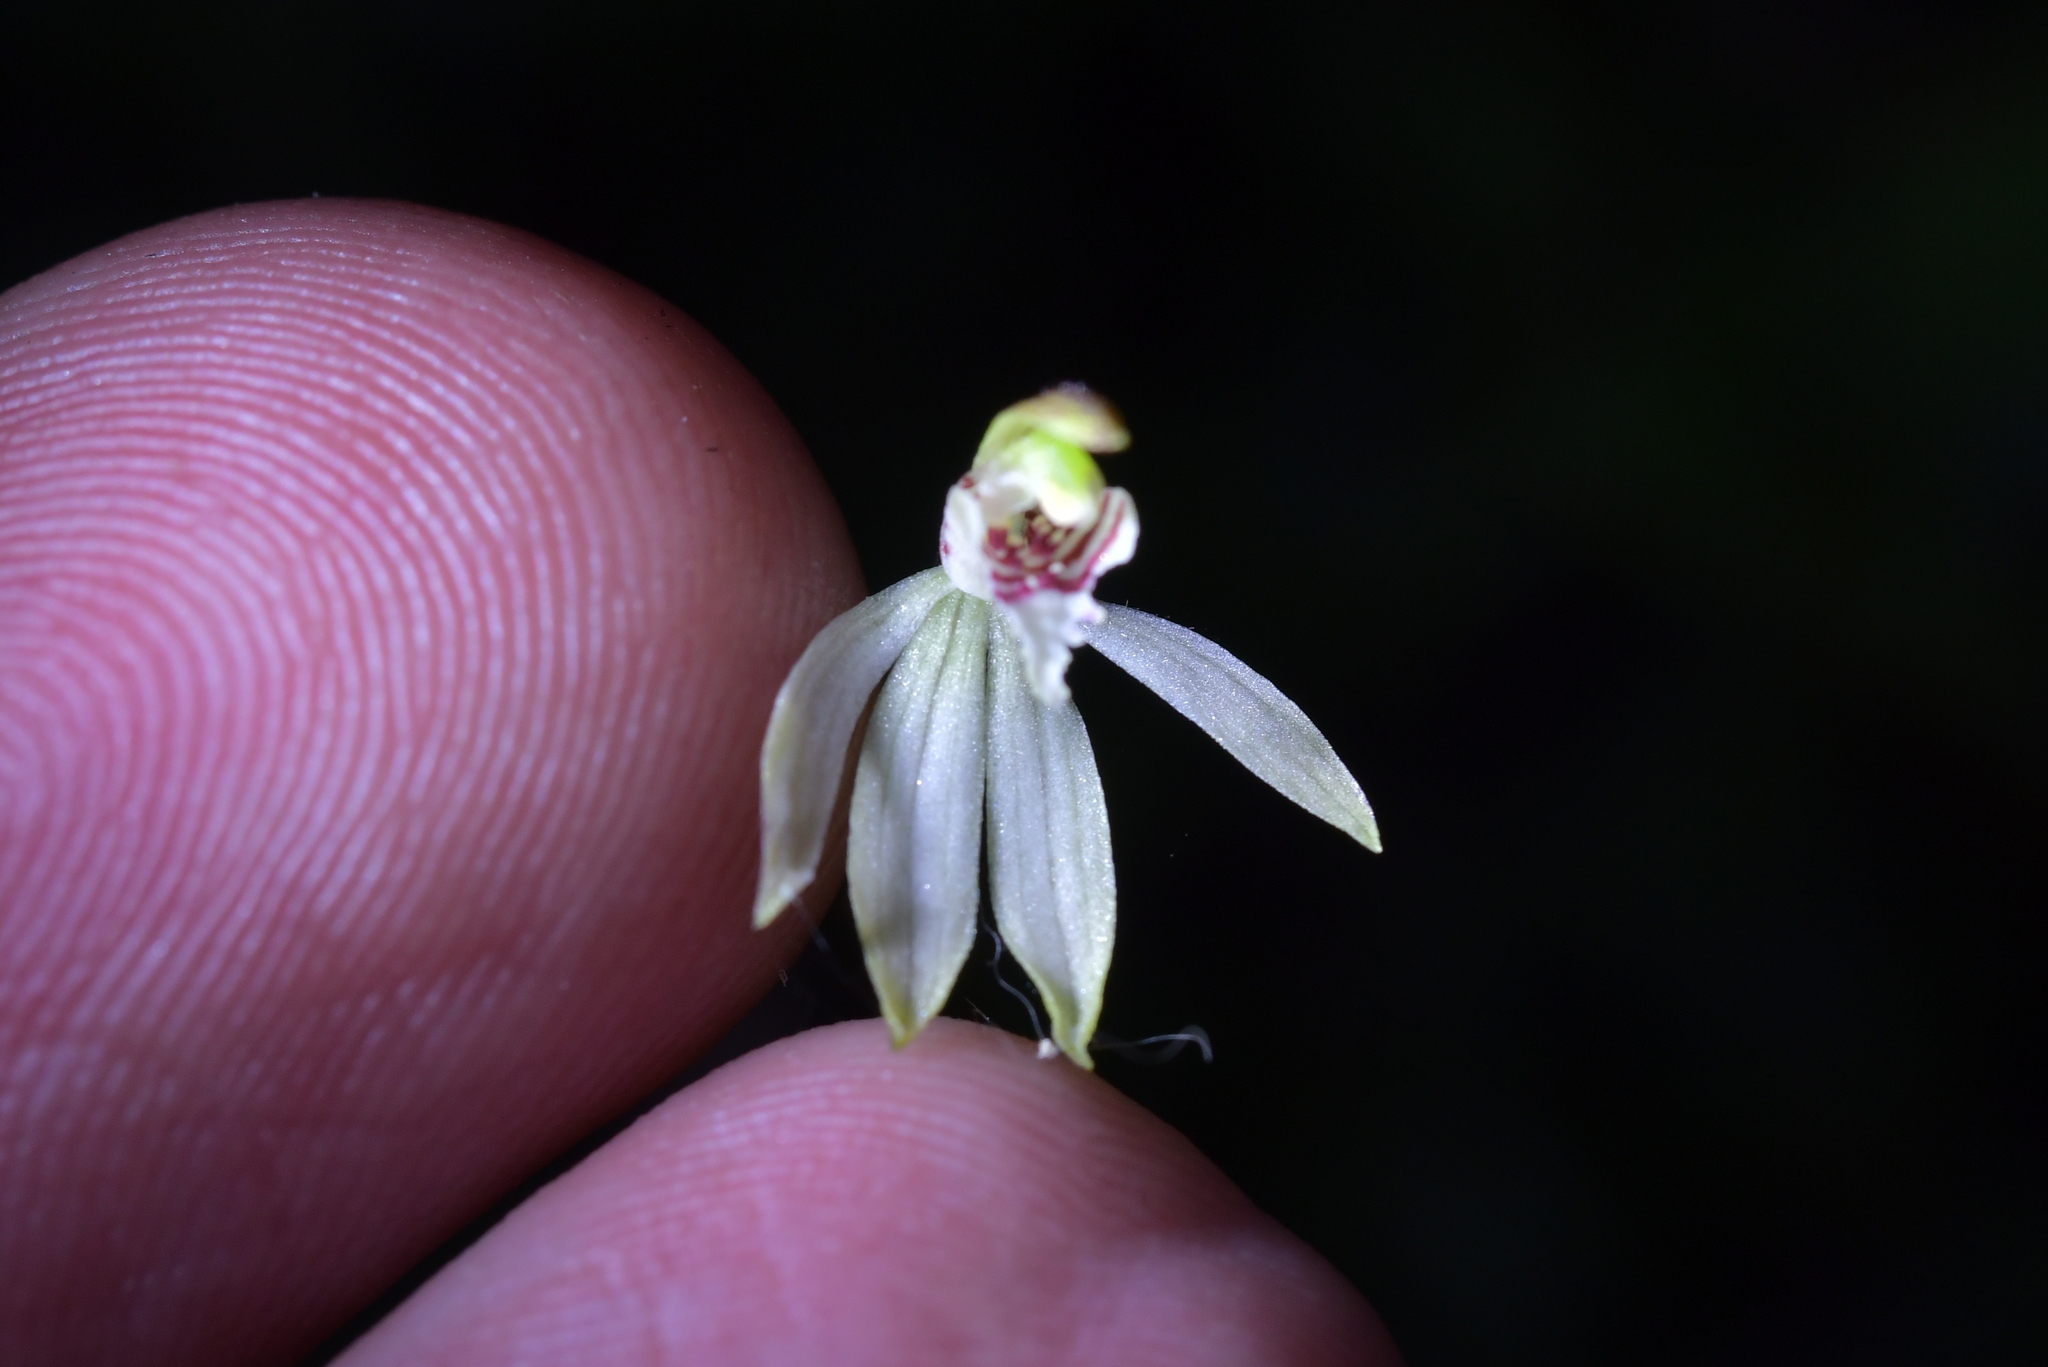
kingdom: Plantae
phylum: Tracheophyta
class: Liliopsida
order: Asparagales
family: Orchidaceae
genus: Caladenia
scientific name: Caladenia chlorostyla
